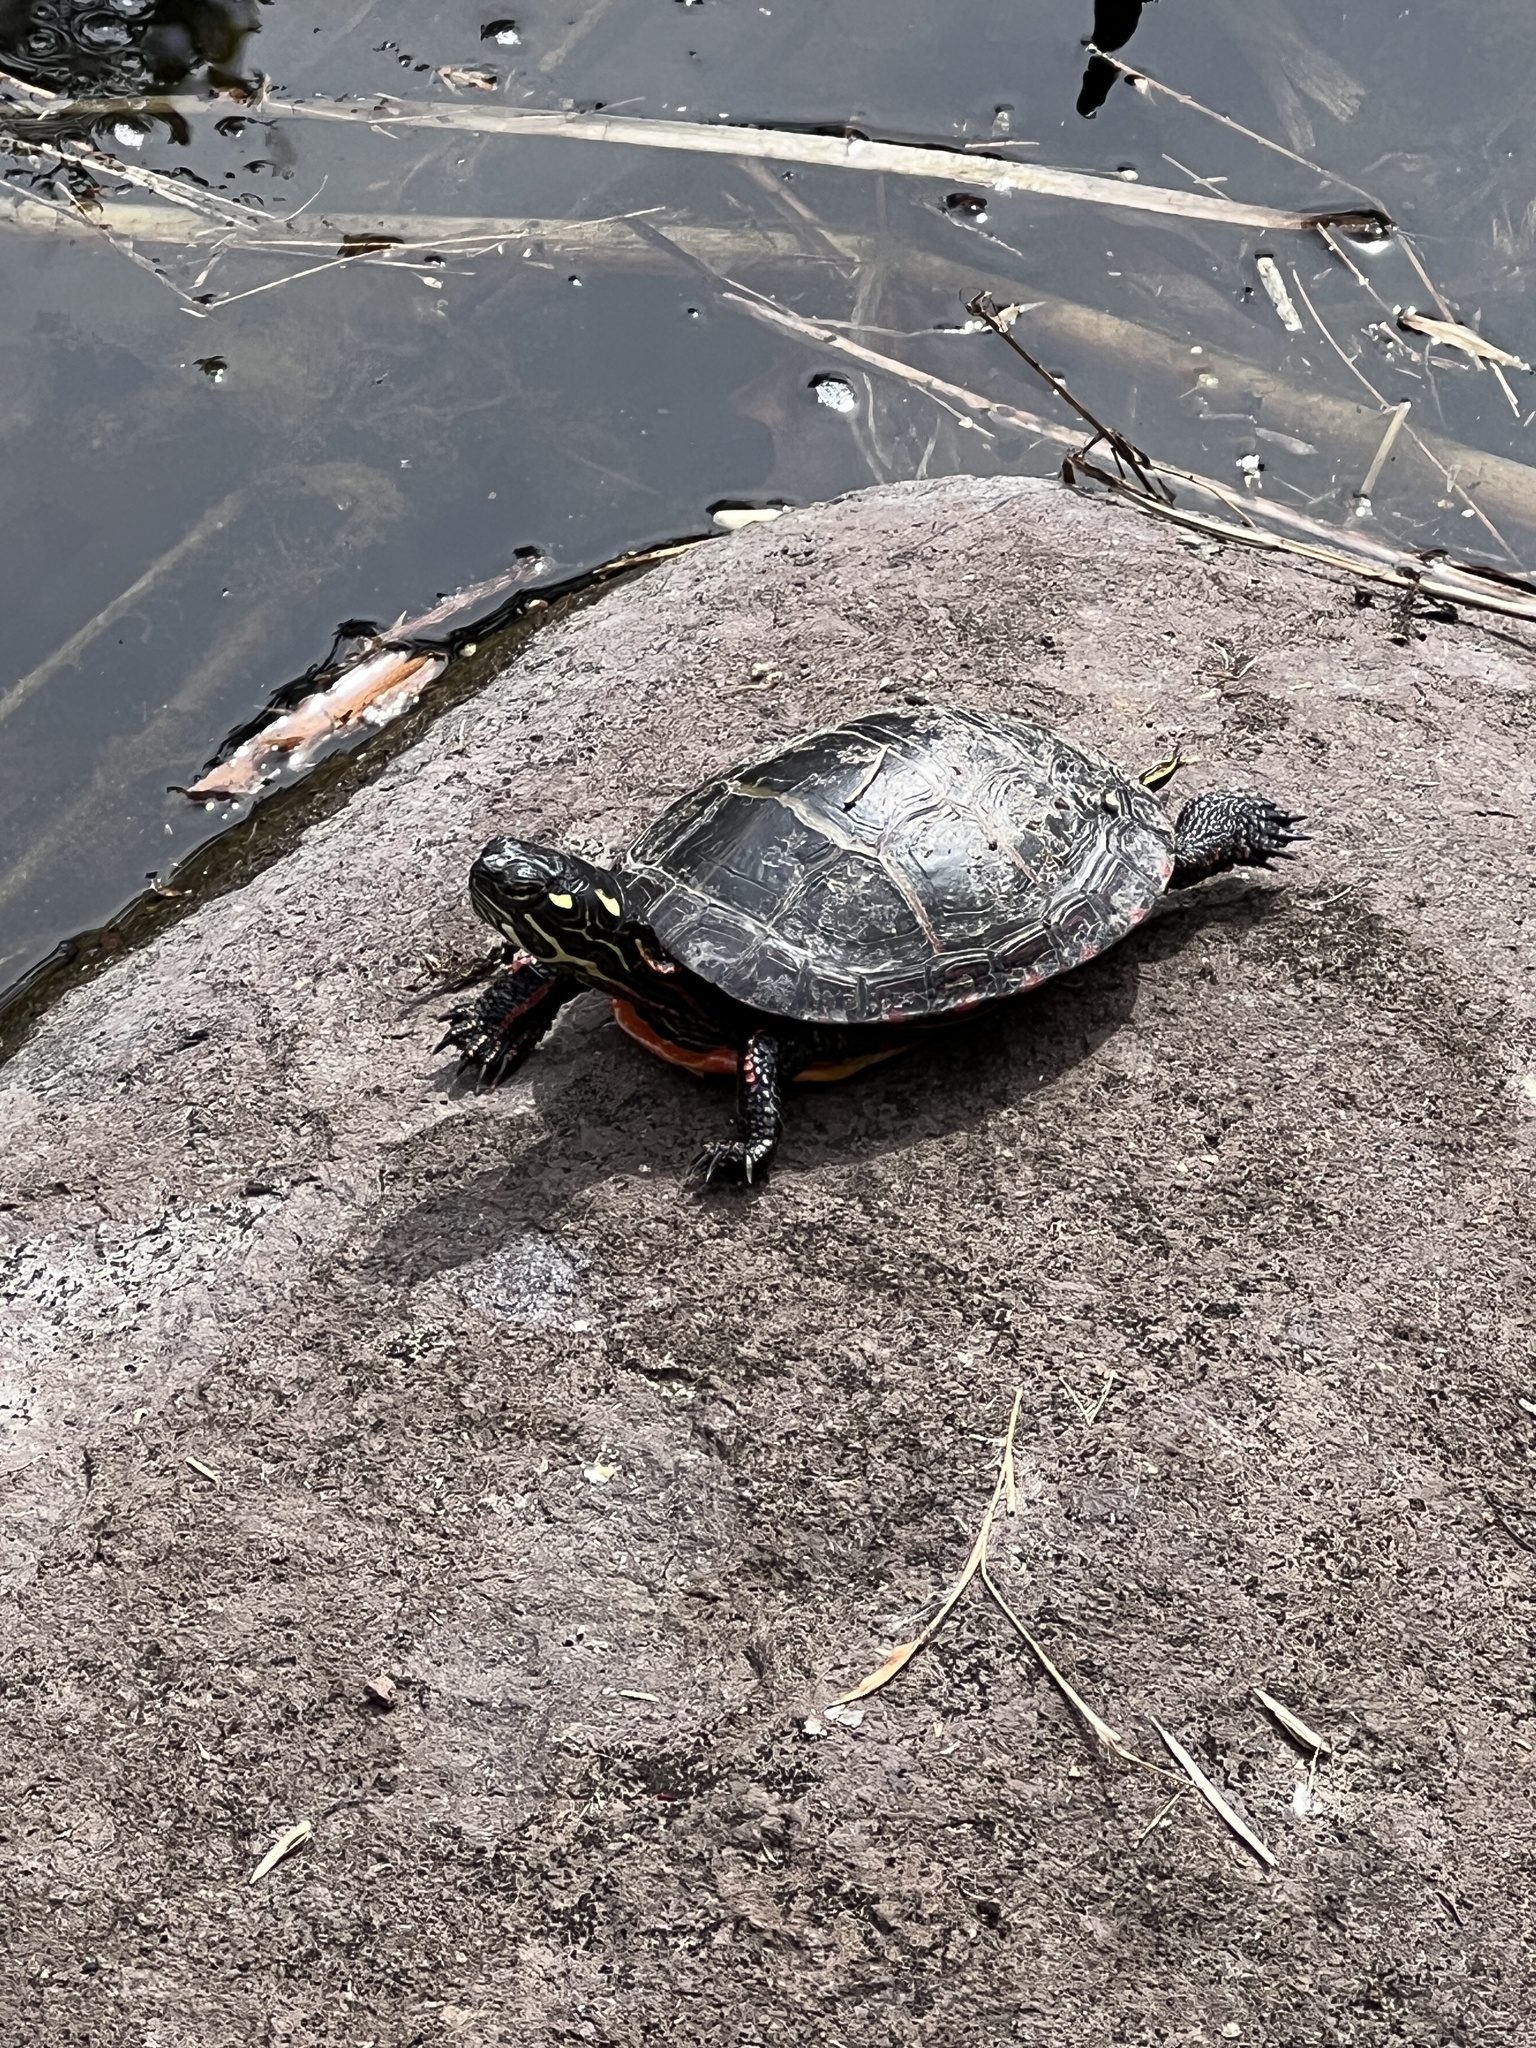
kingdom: Animalia
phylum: Chordata
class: Testudines
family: Emydidae
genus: Chrysemys
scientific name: Chrysemys picta
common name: Painted turtle
